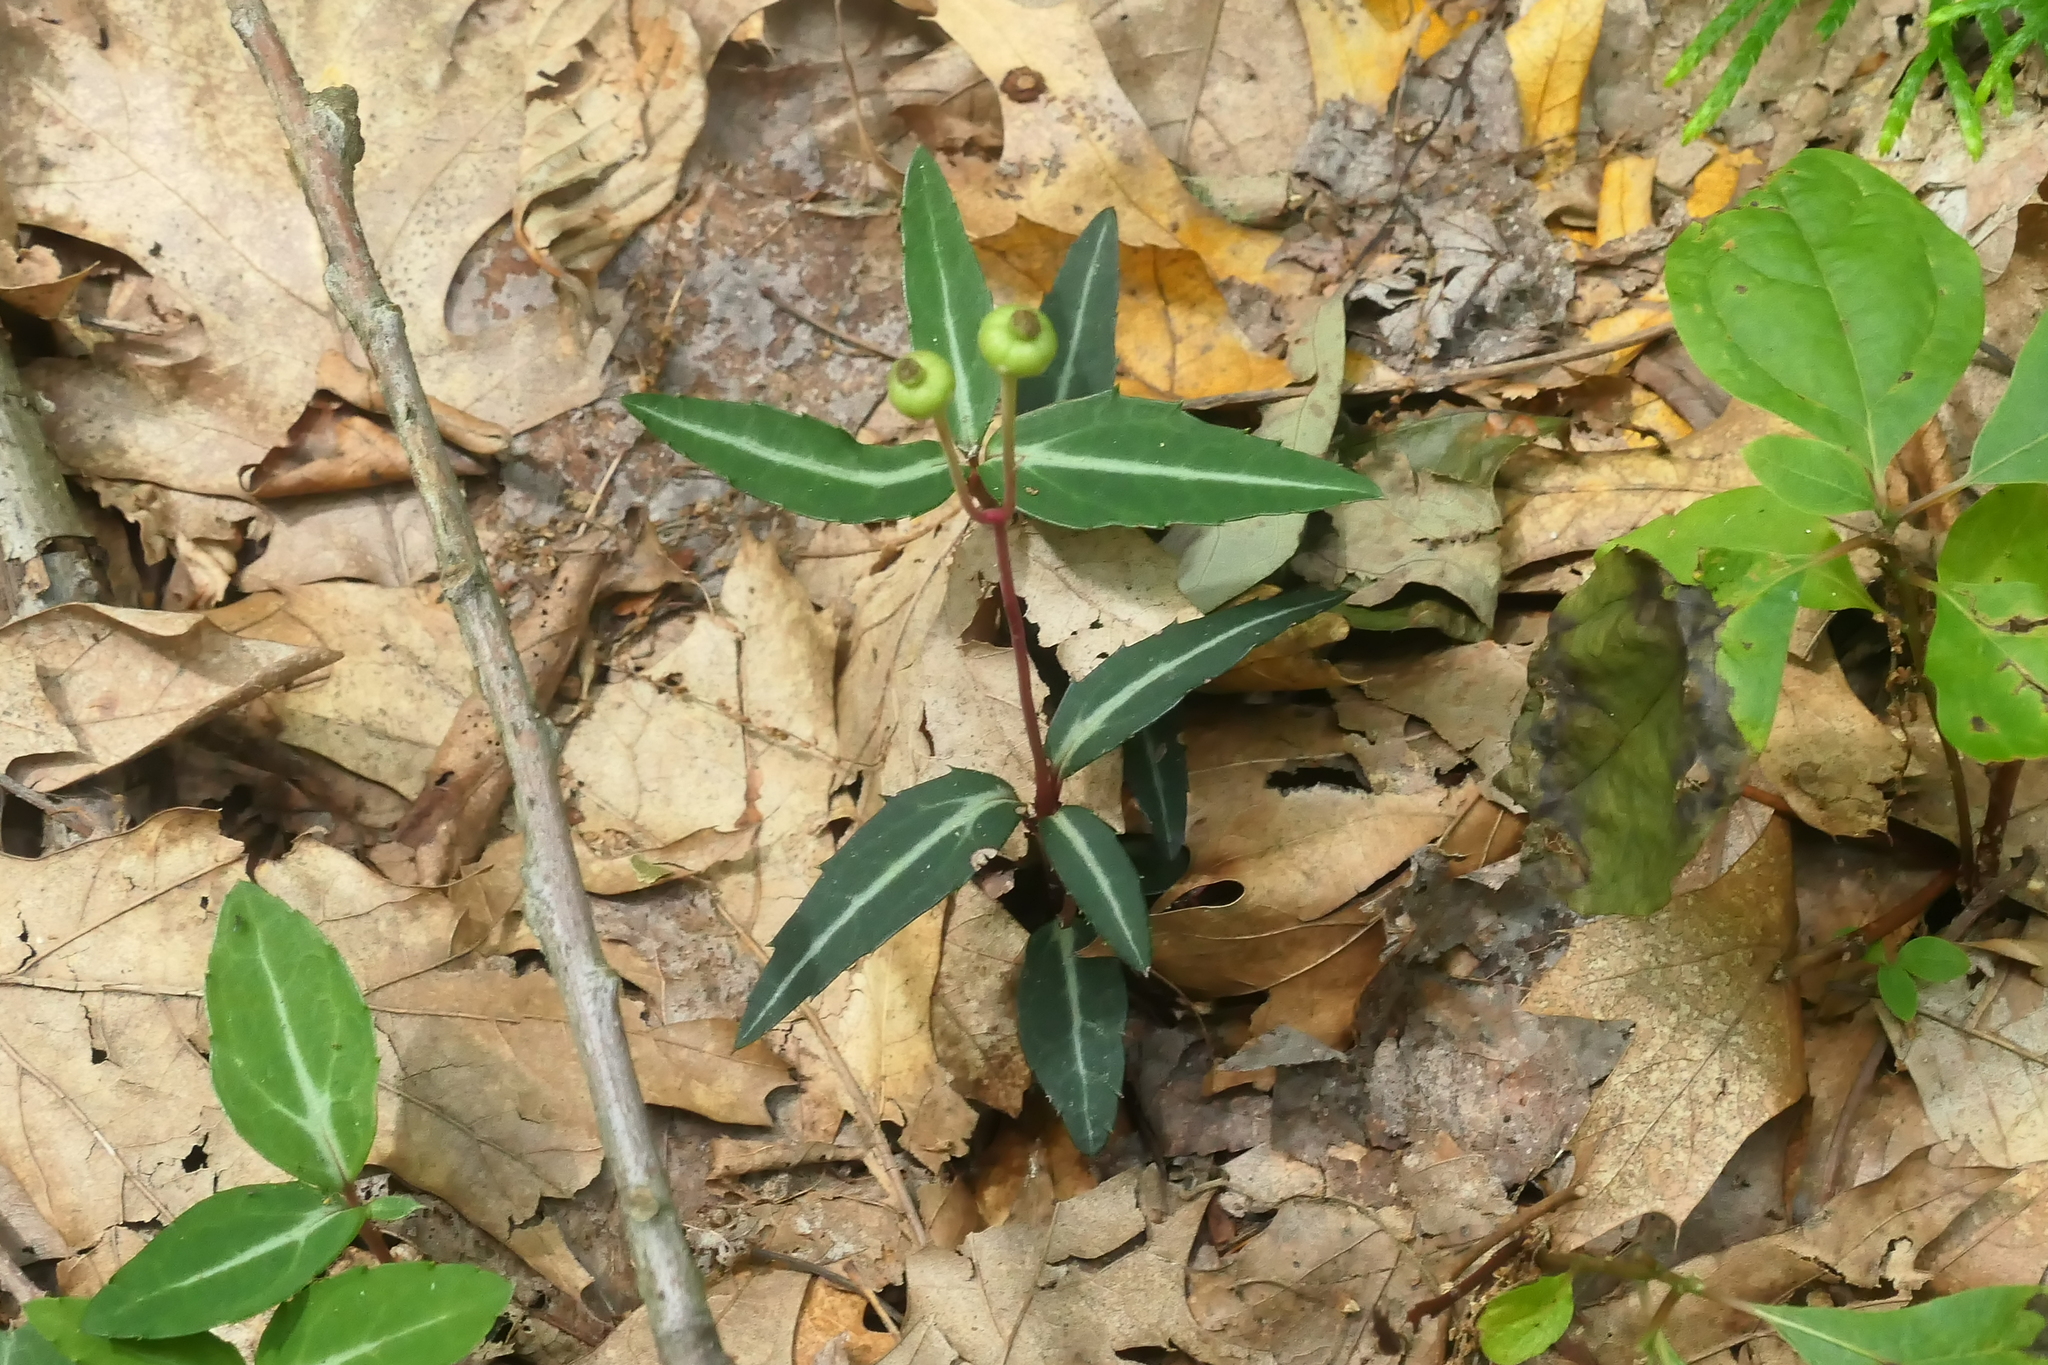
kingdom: Plantae
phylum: Tracheophyta
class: Magnoliopsida
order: Ericales
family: Ericaceae
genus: Chimaphila
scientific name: Chimaphila maculata
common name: Spotted pipsissewa
